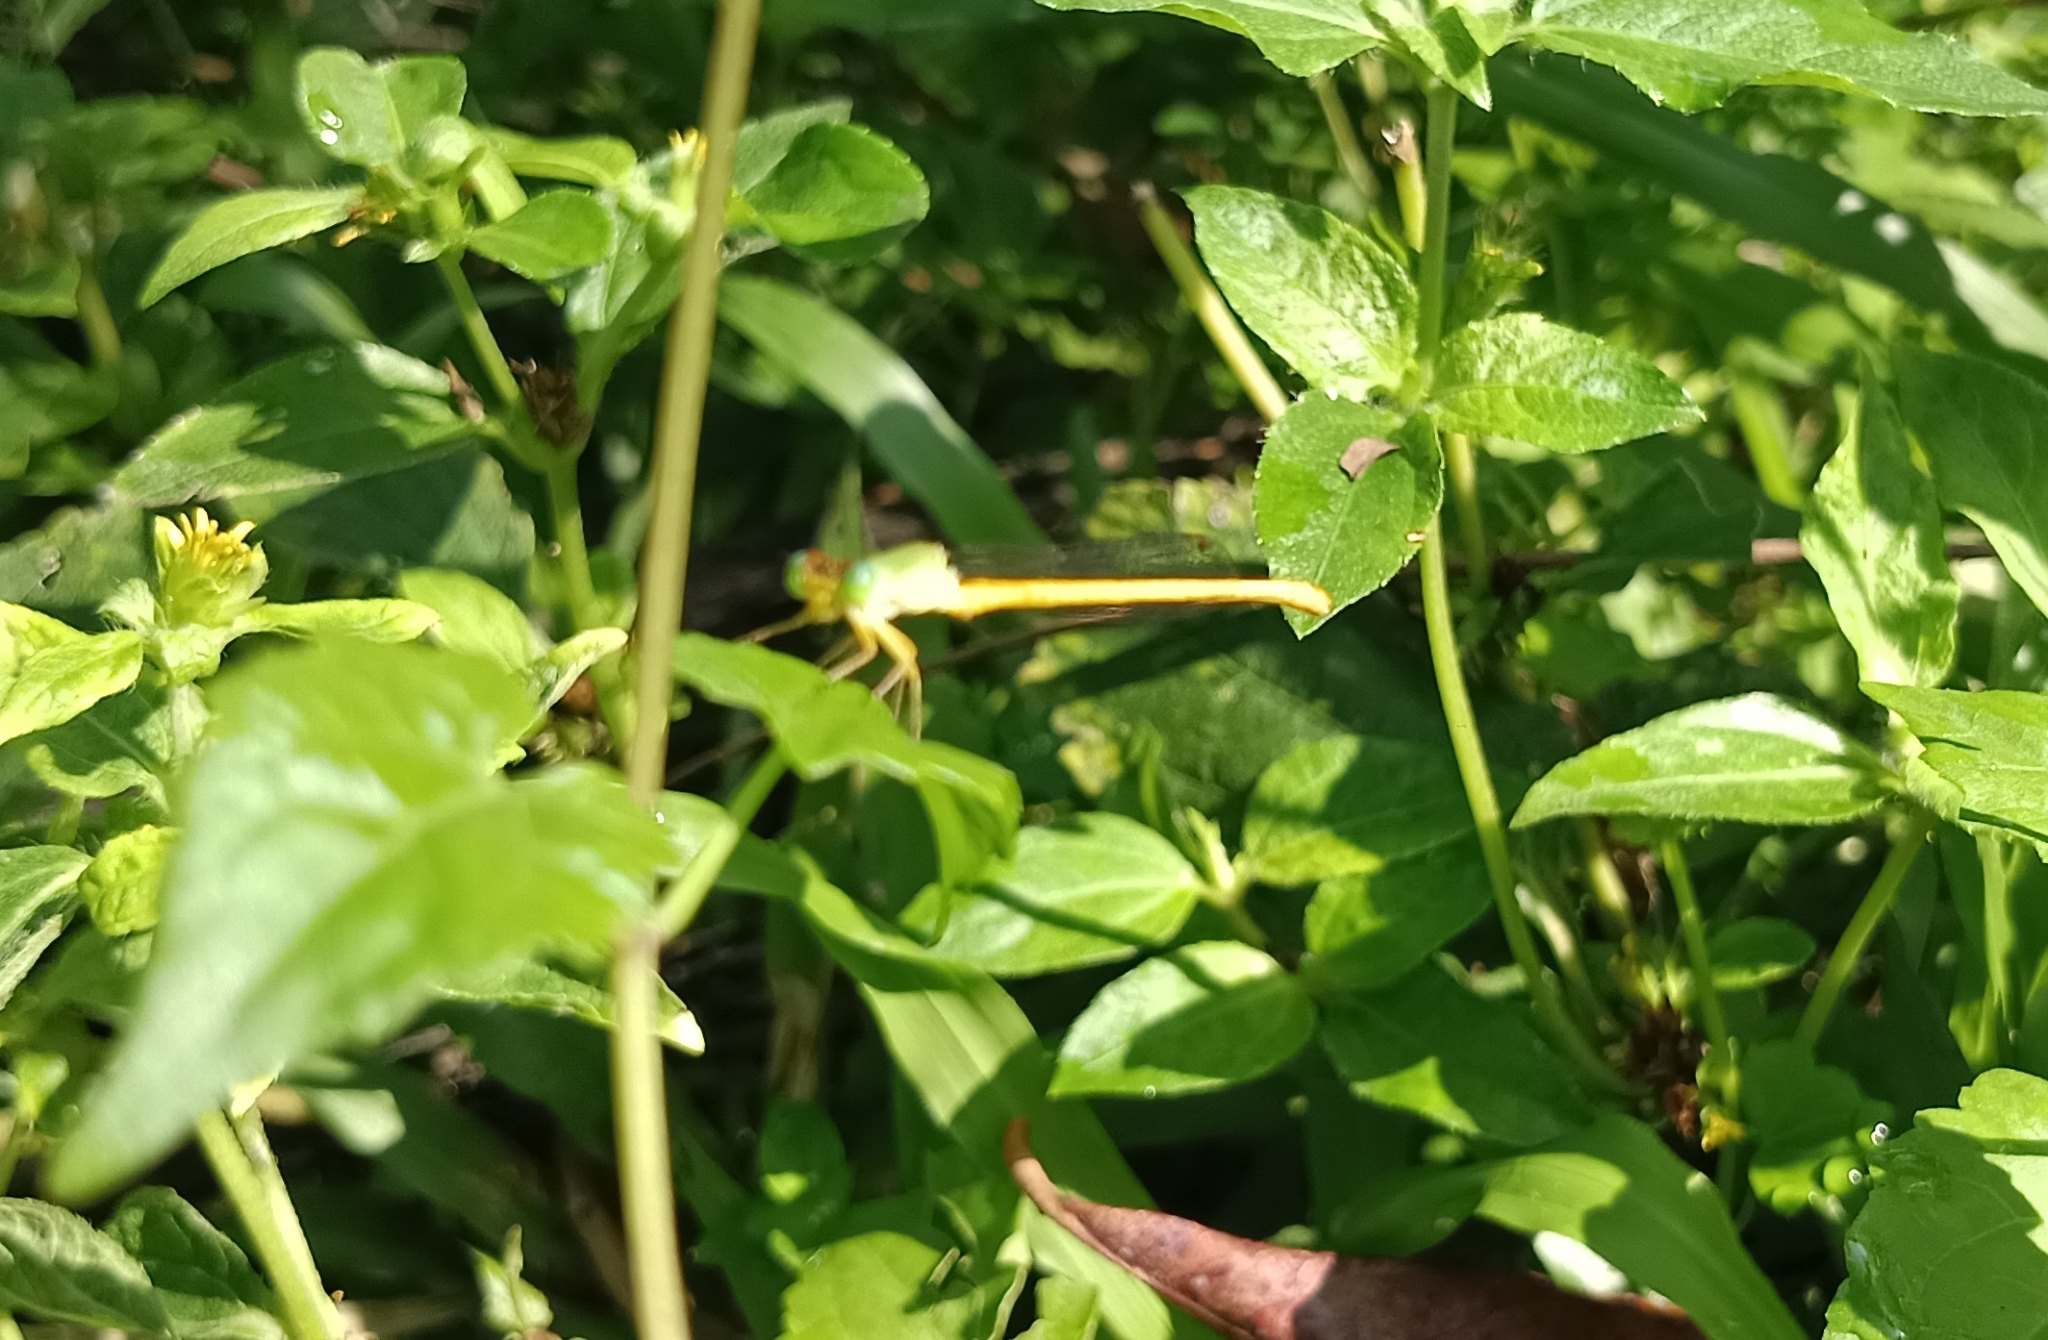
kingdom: Animalia
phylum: Arthropoda
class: Insecta
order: Odonata
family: Coenagrionidae
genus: Ceriagrion
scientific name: Ceriagrion coromandelianum
